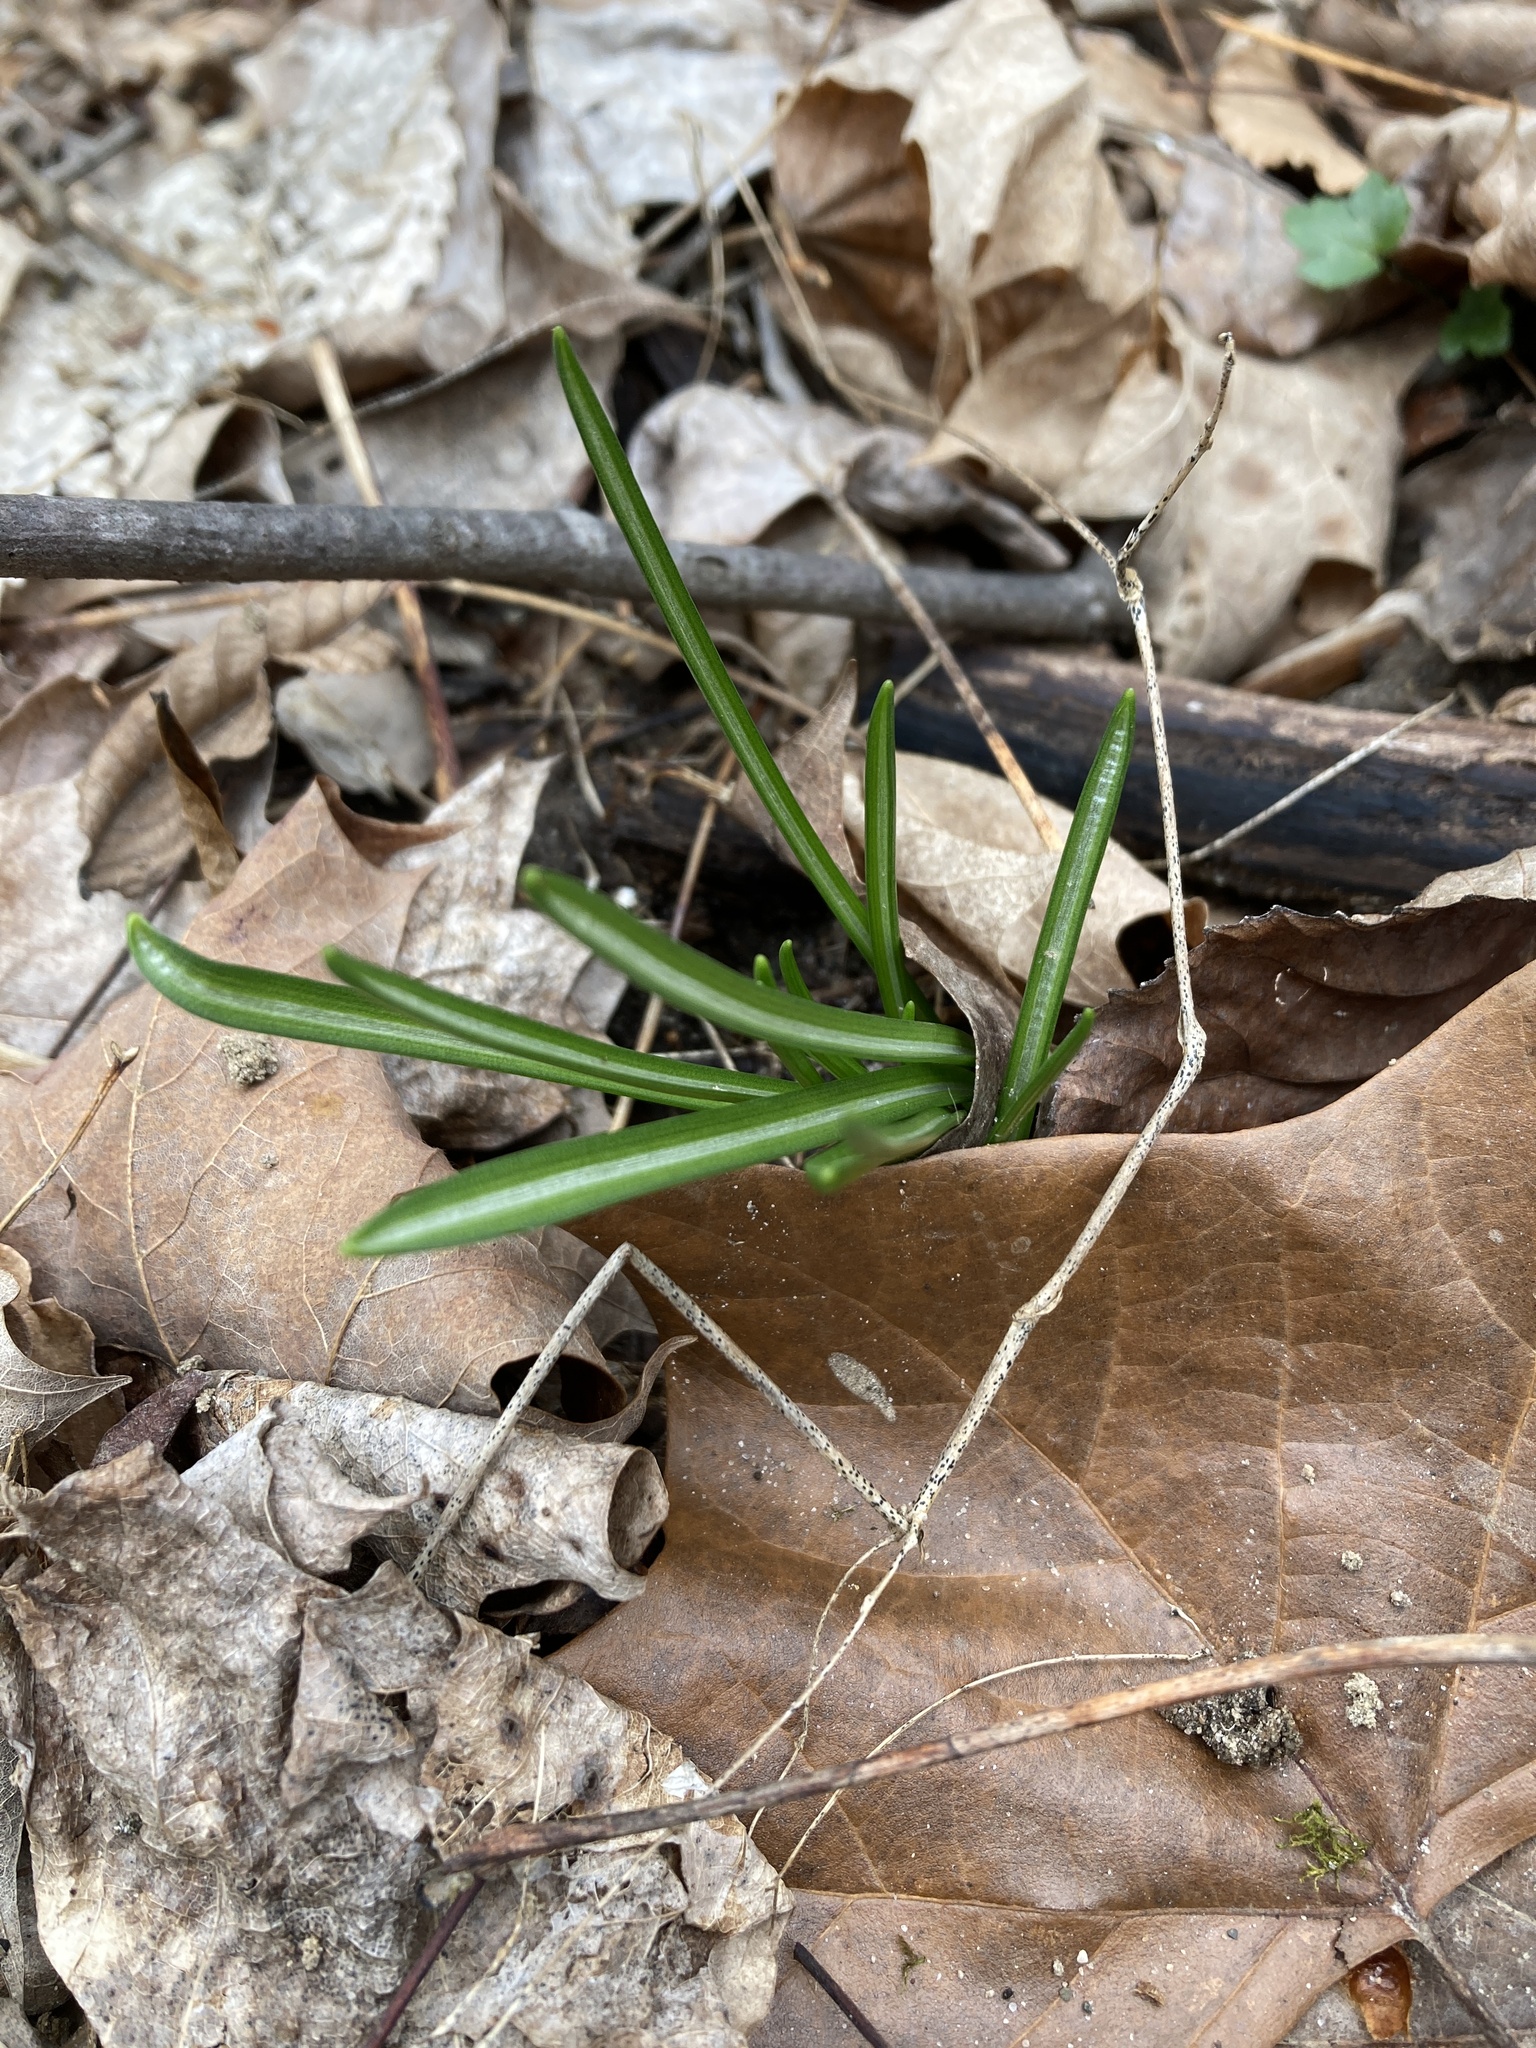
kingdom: Plantae
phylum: Tracheophyta
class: Liliopsida
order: Asparagales
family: Asparagaceae
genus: Ornithogalum
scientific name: Ornithogalum umbellatum
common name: Garden star-of-bethlehem
